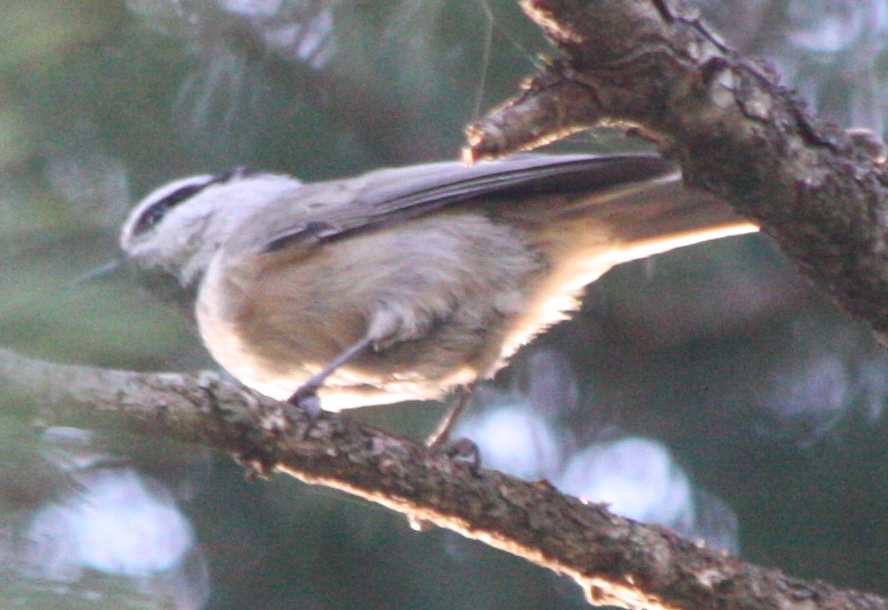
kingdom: Animalia
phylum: Chordata
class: Aves
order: Passeriformes
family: Paridae
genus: Poecile
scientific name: Poecile gambeli
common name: Mountain chickadee
